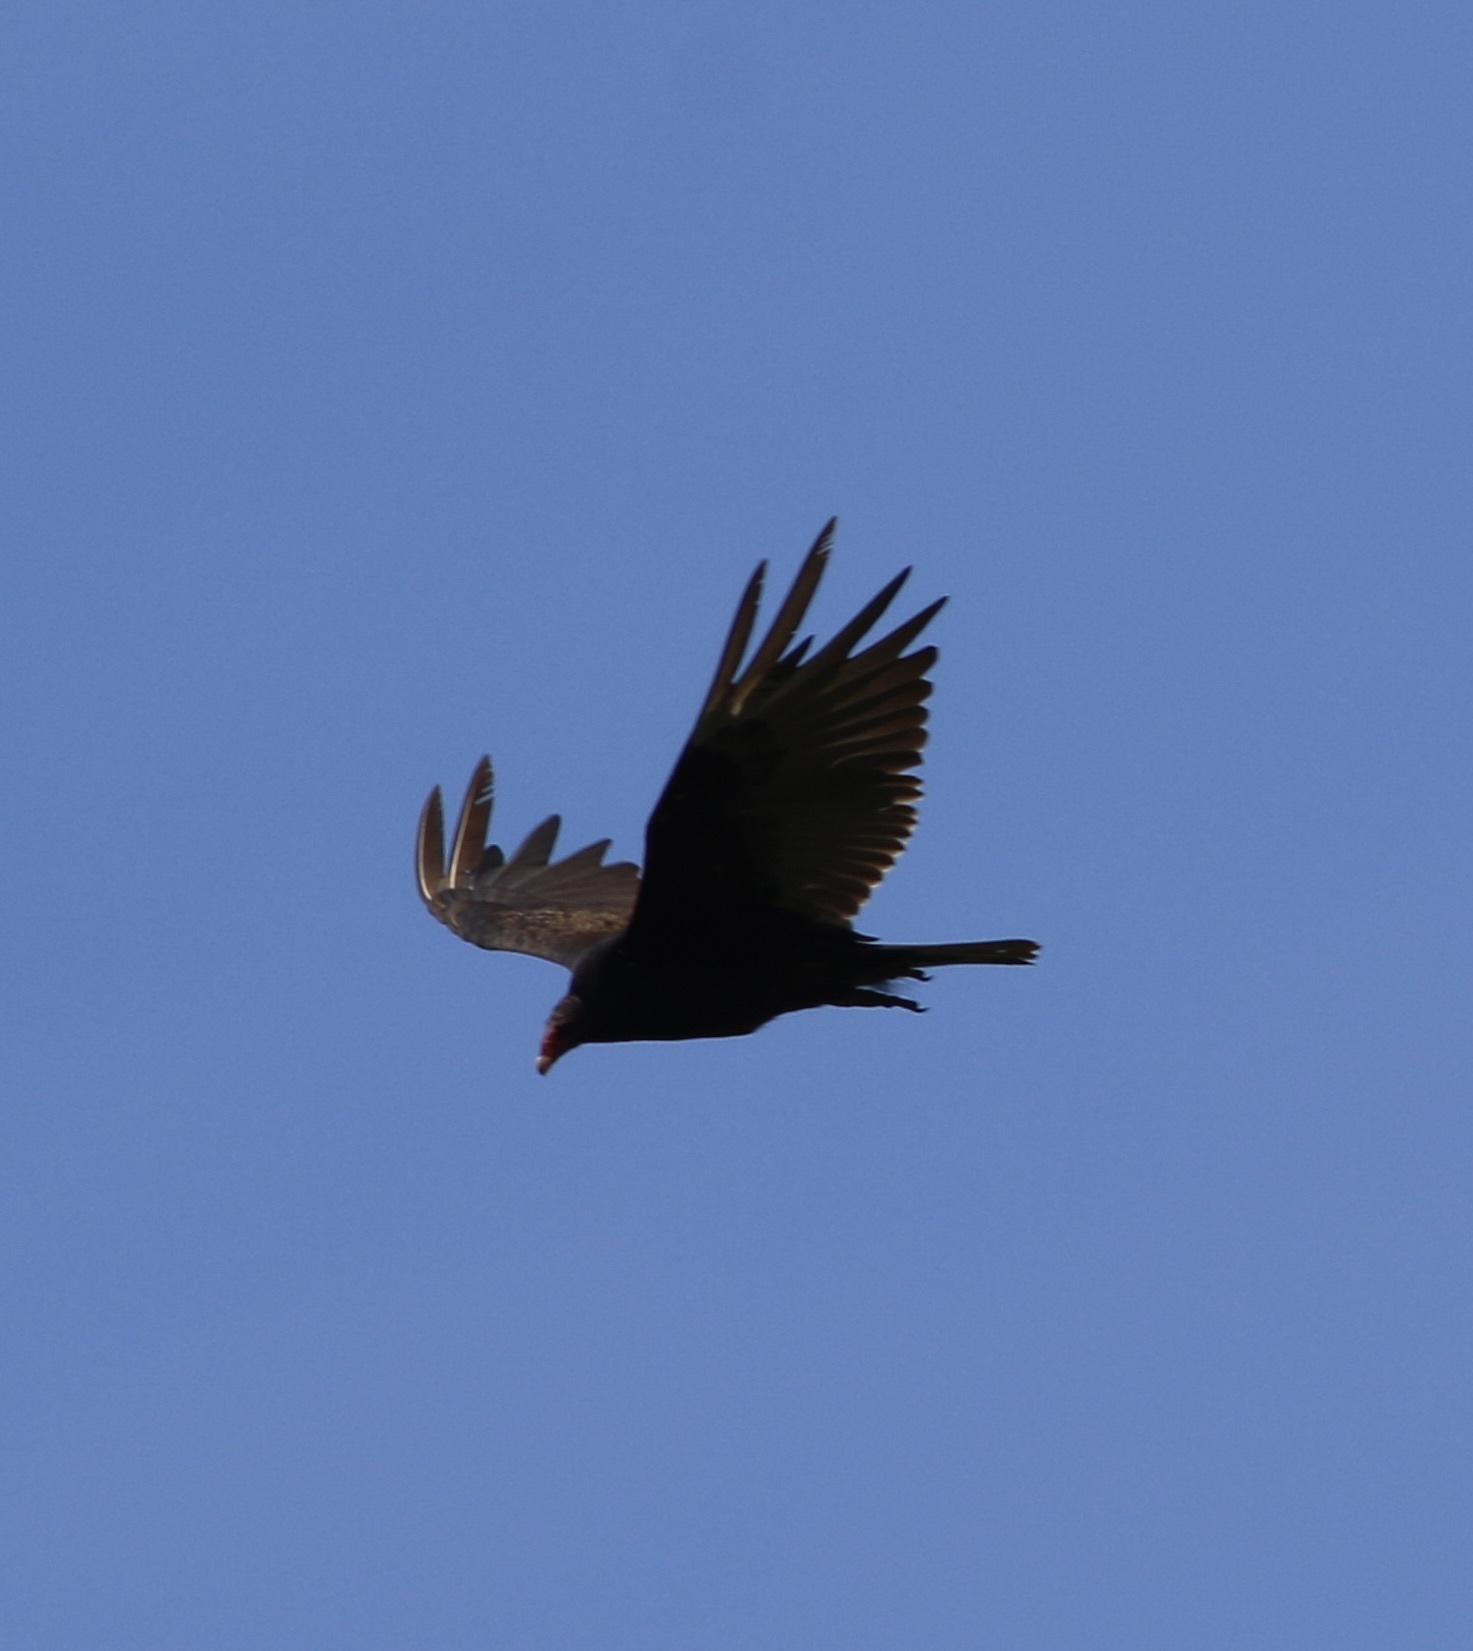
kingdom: Animalia
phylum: Chordata
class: Aves
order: Accipitriformes
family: Cathartidae
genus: Cathartes
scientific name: Cathartes aura
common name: Turkey vulture
